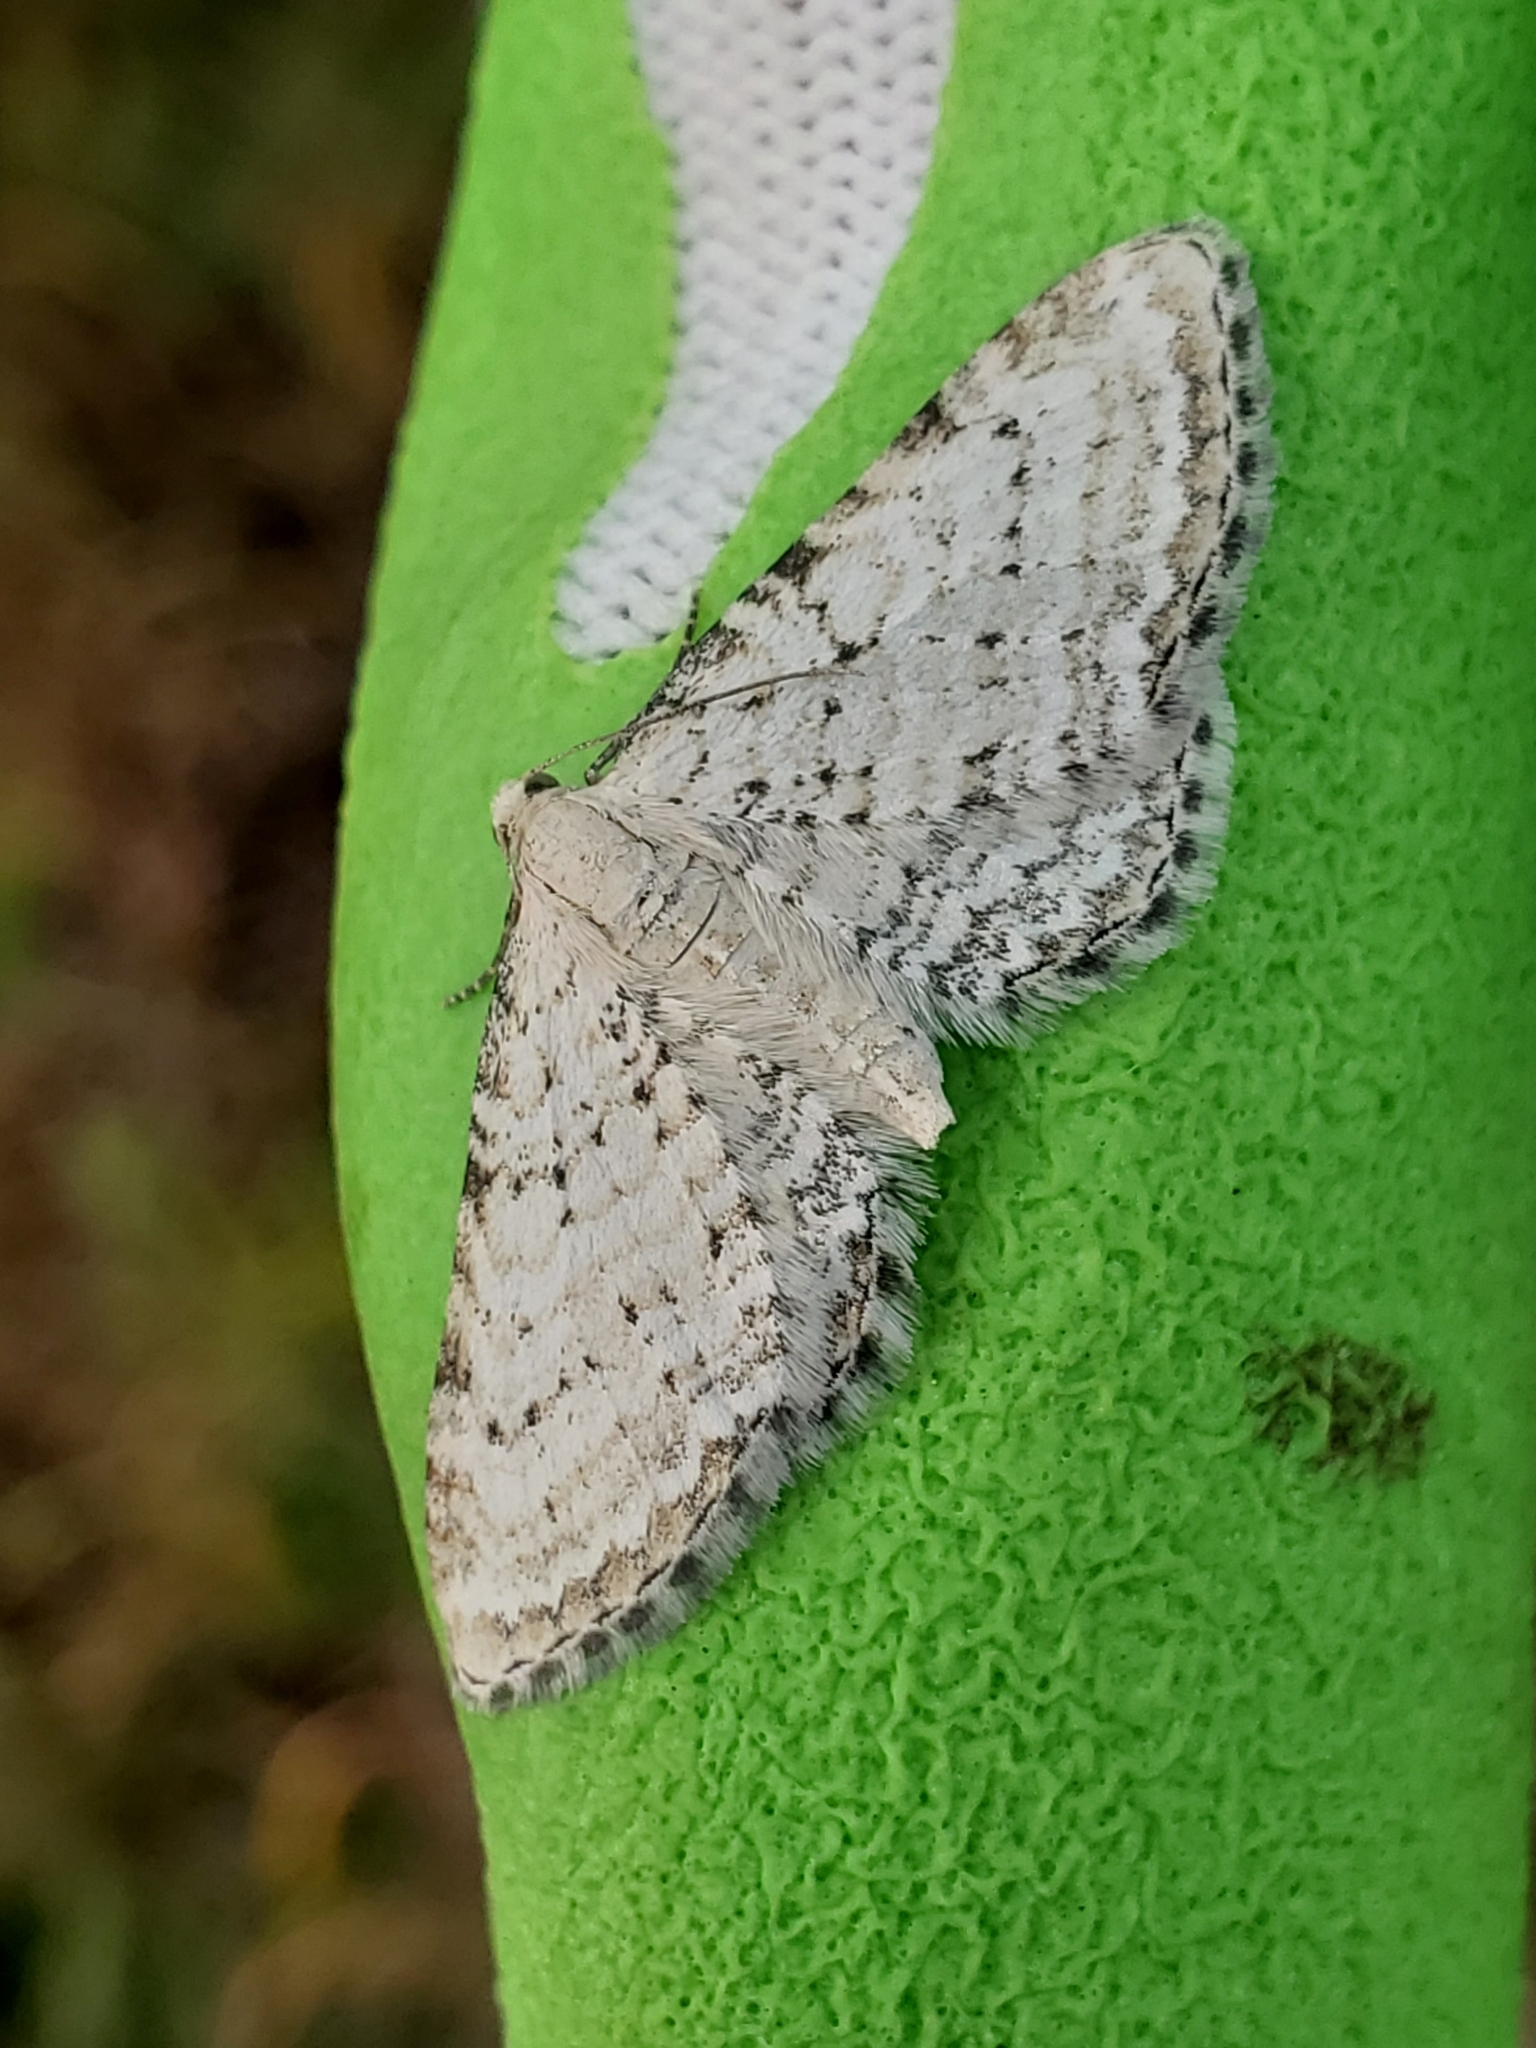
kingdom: Animalia
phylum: Arthropoda
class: Insecta
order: Lepidoptera
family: Geometridae
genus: Eupithecia
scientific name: Eupithecia cretaceata
